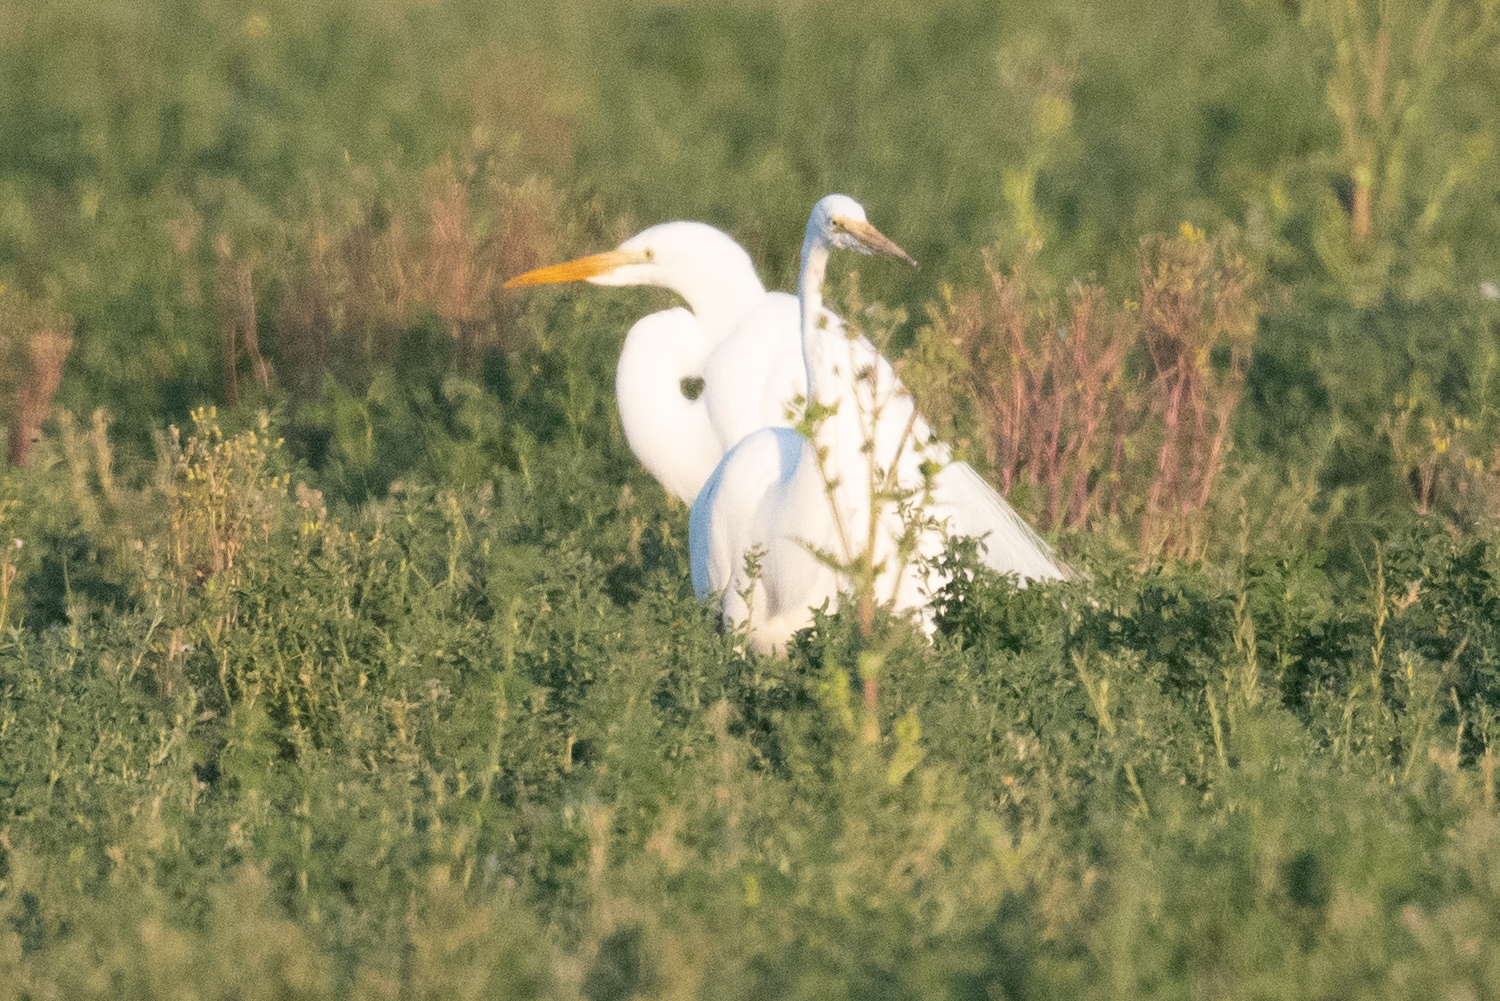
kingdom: Animalia
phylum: Chordata
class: Aves
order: Pelecaniformes
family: Ardeidae
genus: Ardea
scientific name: Ardea alba
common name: Great egret
